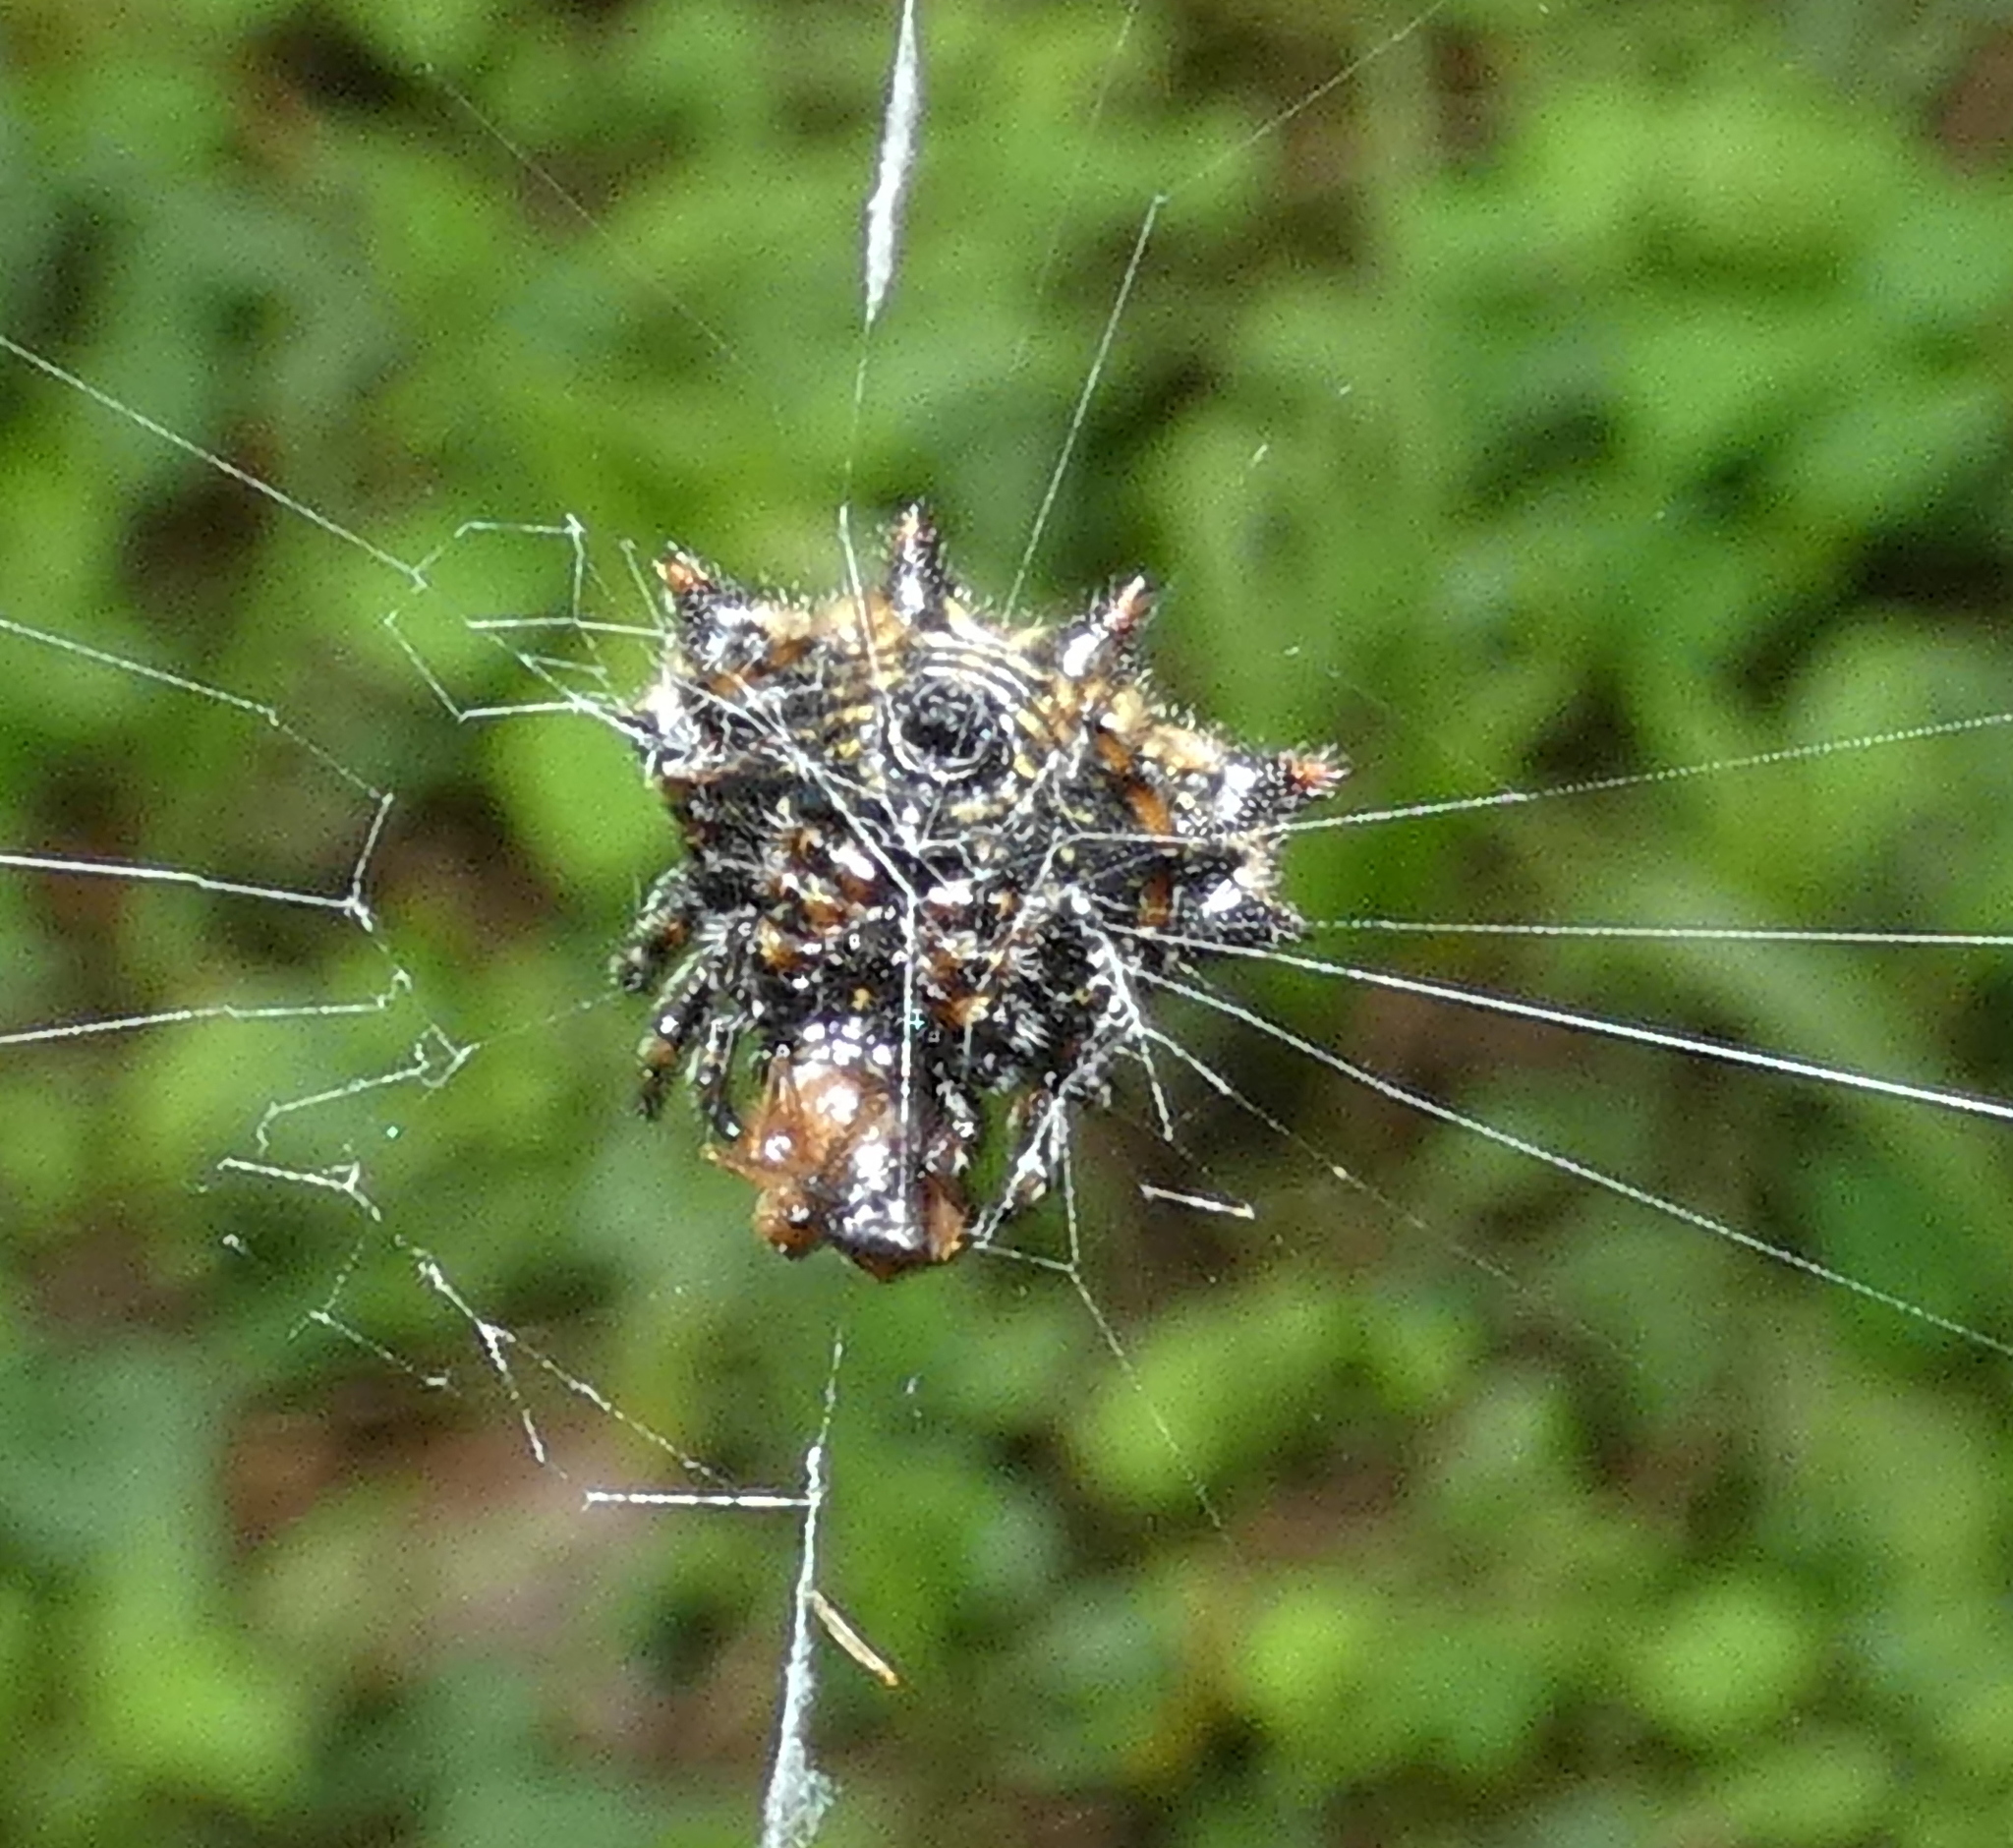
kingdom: Animalia
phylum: Arthropoda
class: Arachnida
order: Araneae
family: Araneidae
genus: Gasteracantha
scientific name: Gasteracantha cancriformis
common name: Orb weavers
